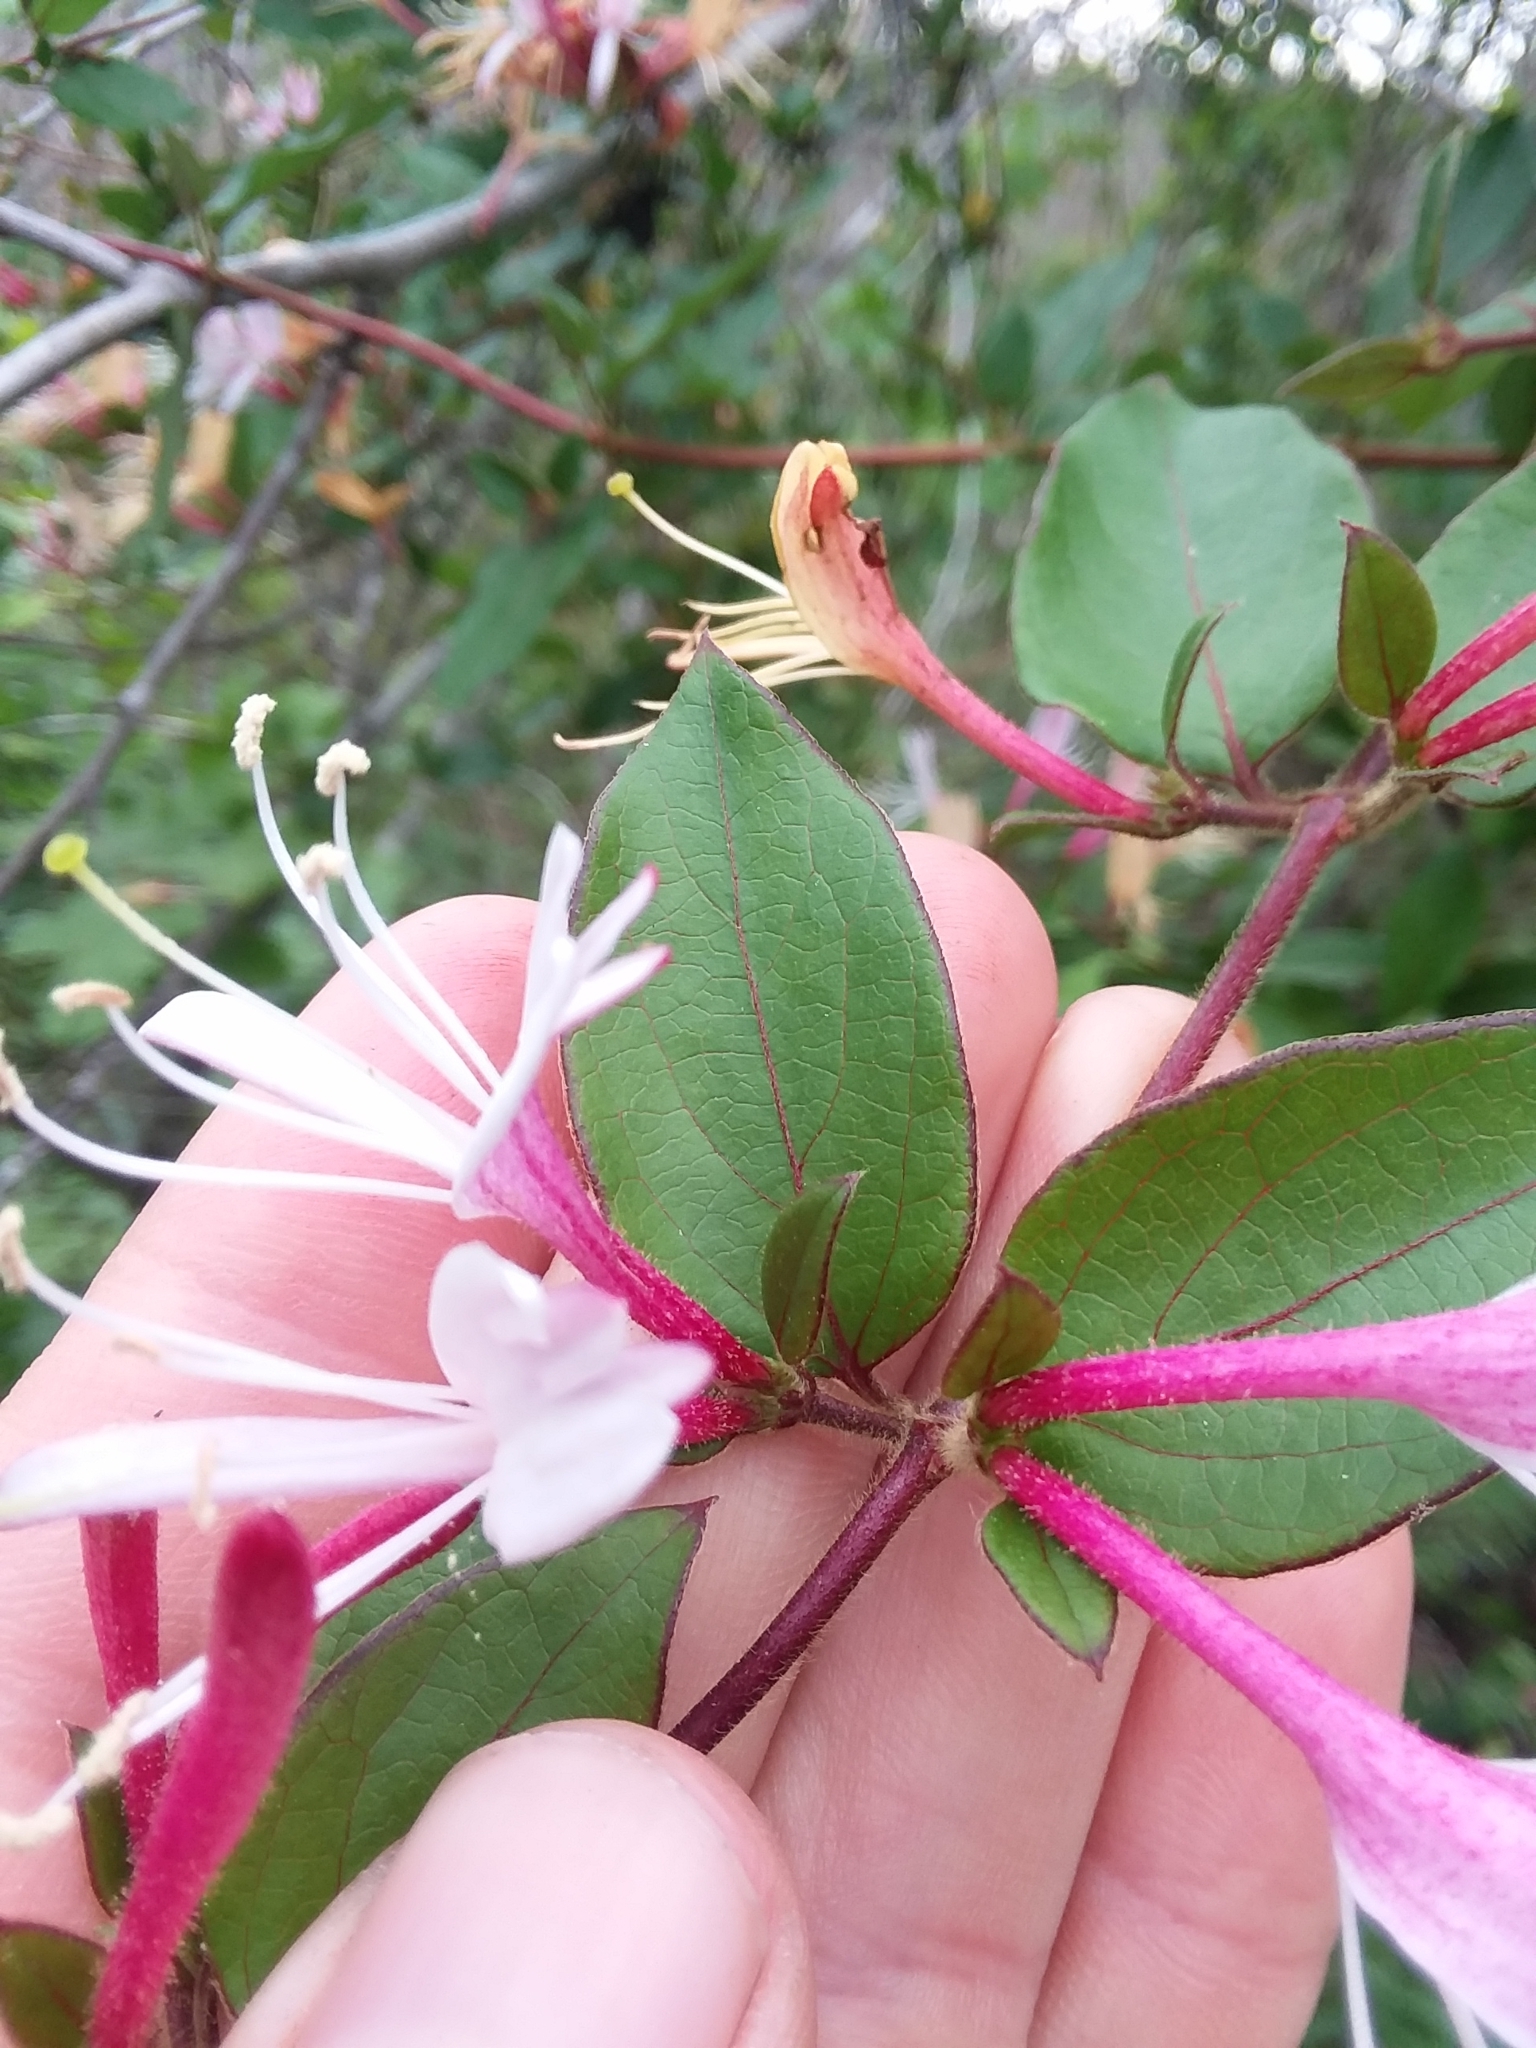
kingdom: Plantae
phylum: Tracheophyta
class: Magnoliopsida
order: Dipsacales
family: Caprifoliaceae
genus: Lonicera
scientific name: Lonicera japonica
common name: Japanese honeysuckle
